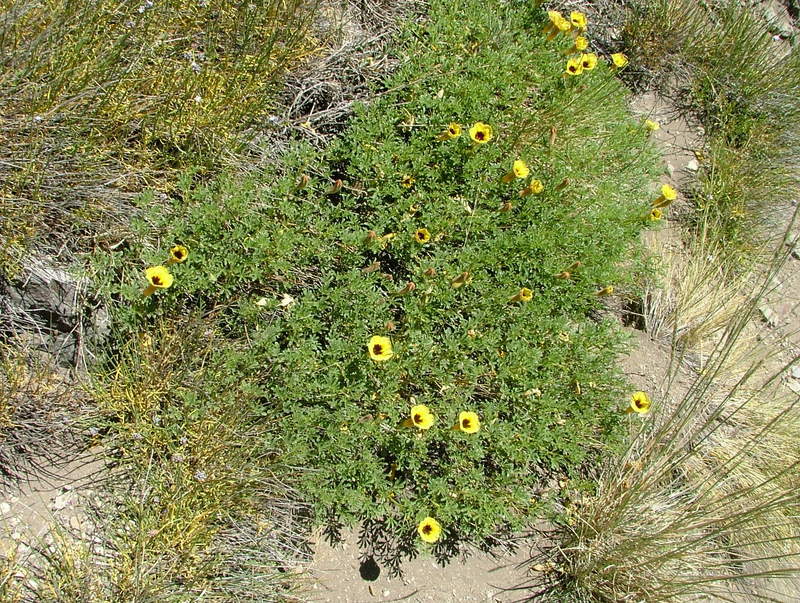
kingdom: Plantae
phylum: Tracheophyta
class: Magnoliopsida
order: Lamiales
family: Bignoniaceae
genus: Argylia
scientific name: Argylia bustillosii
